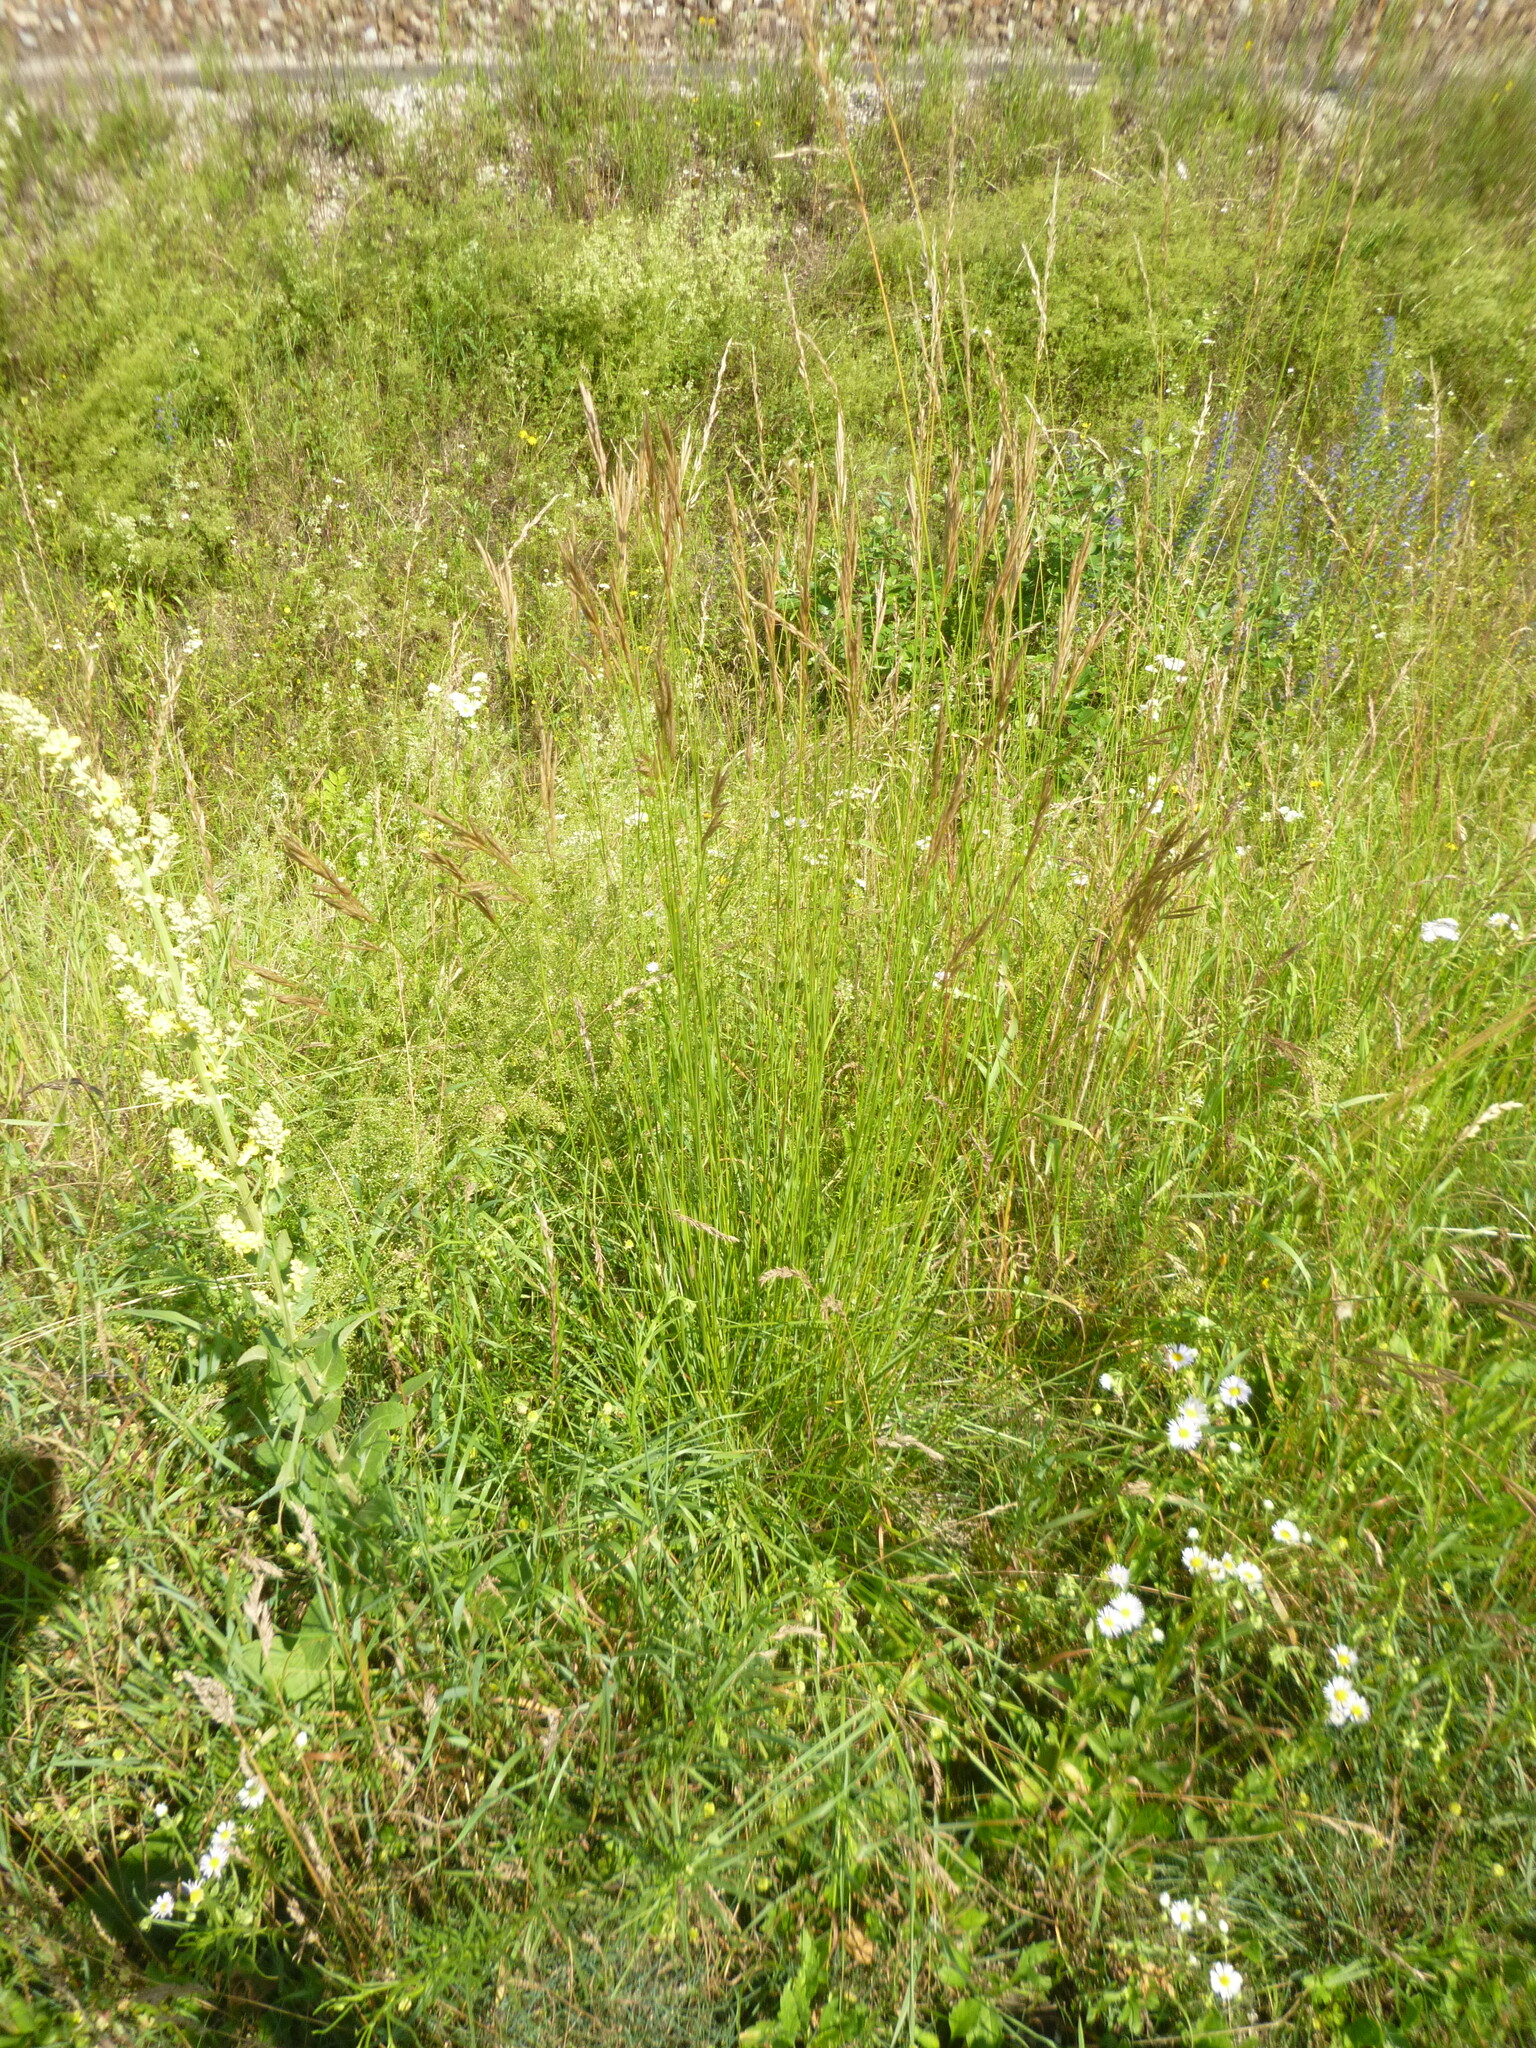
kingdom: Plantae
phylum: Tracheophyta
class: Liliopsida
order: Poales
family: Poaceae
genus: Bromus
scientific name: Bromus erectus
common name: Erect brome
